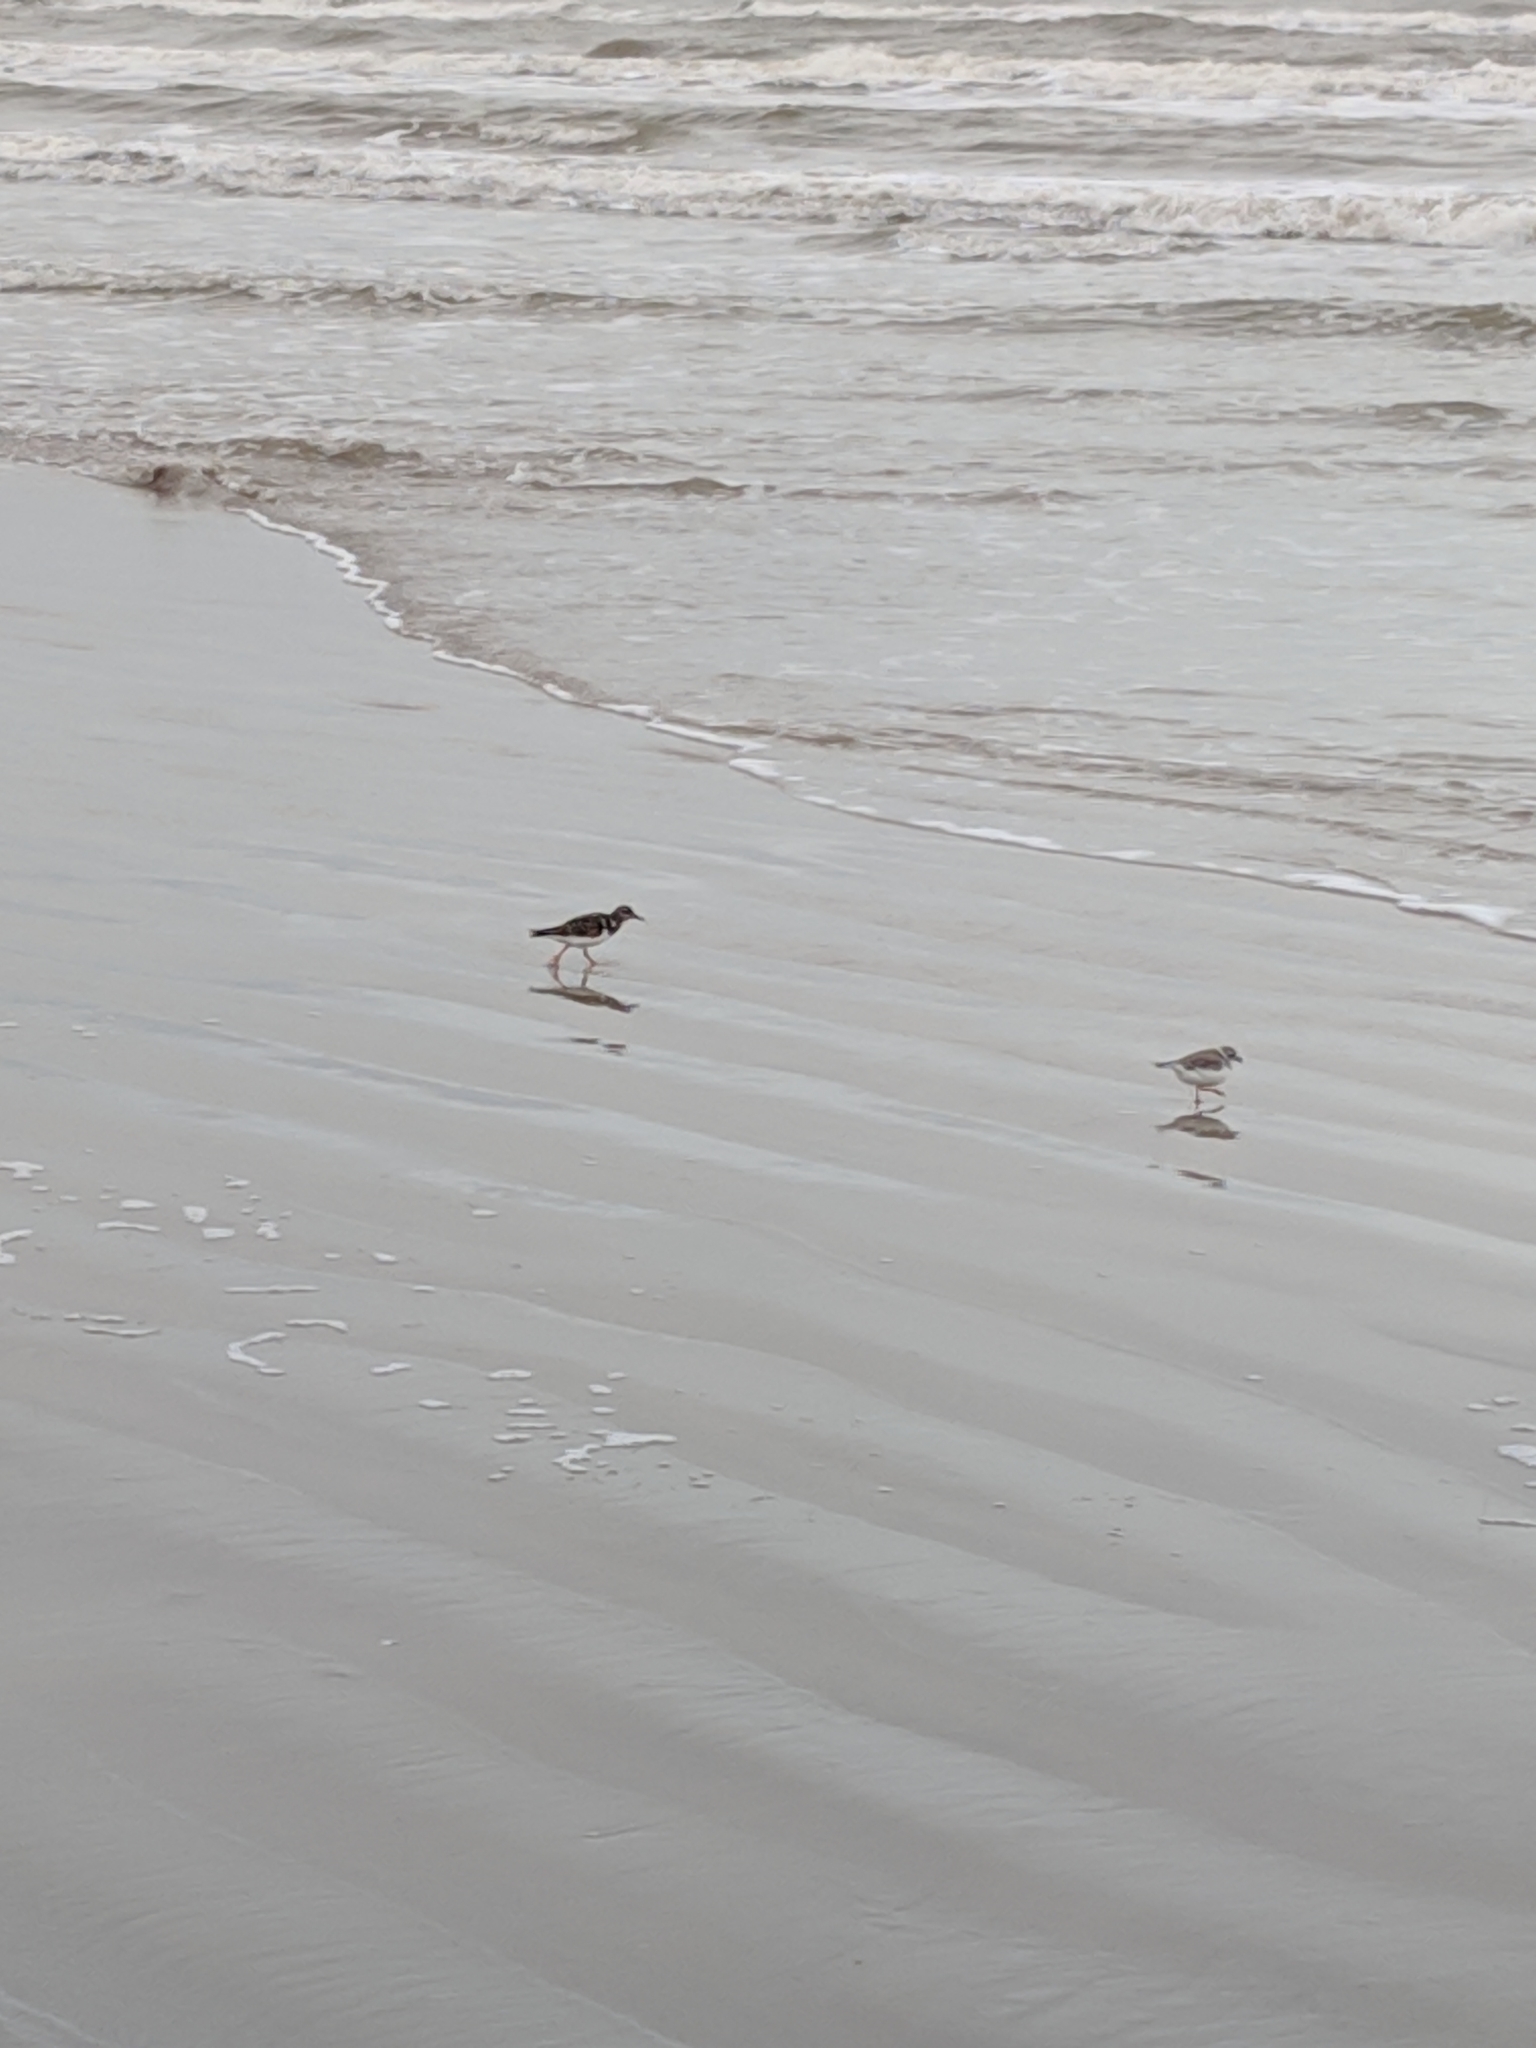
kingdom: Animalia
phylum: Chordata
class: Aves
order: Charadriiformes
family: Scolopacidae
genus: Arenaria
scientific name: Arenaria interpres
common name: Ruddy turnstone
